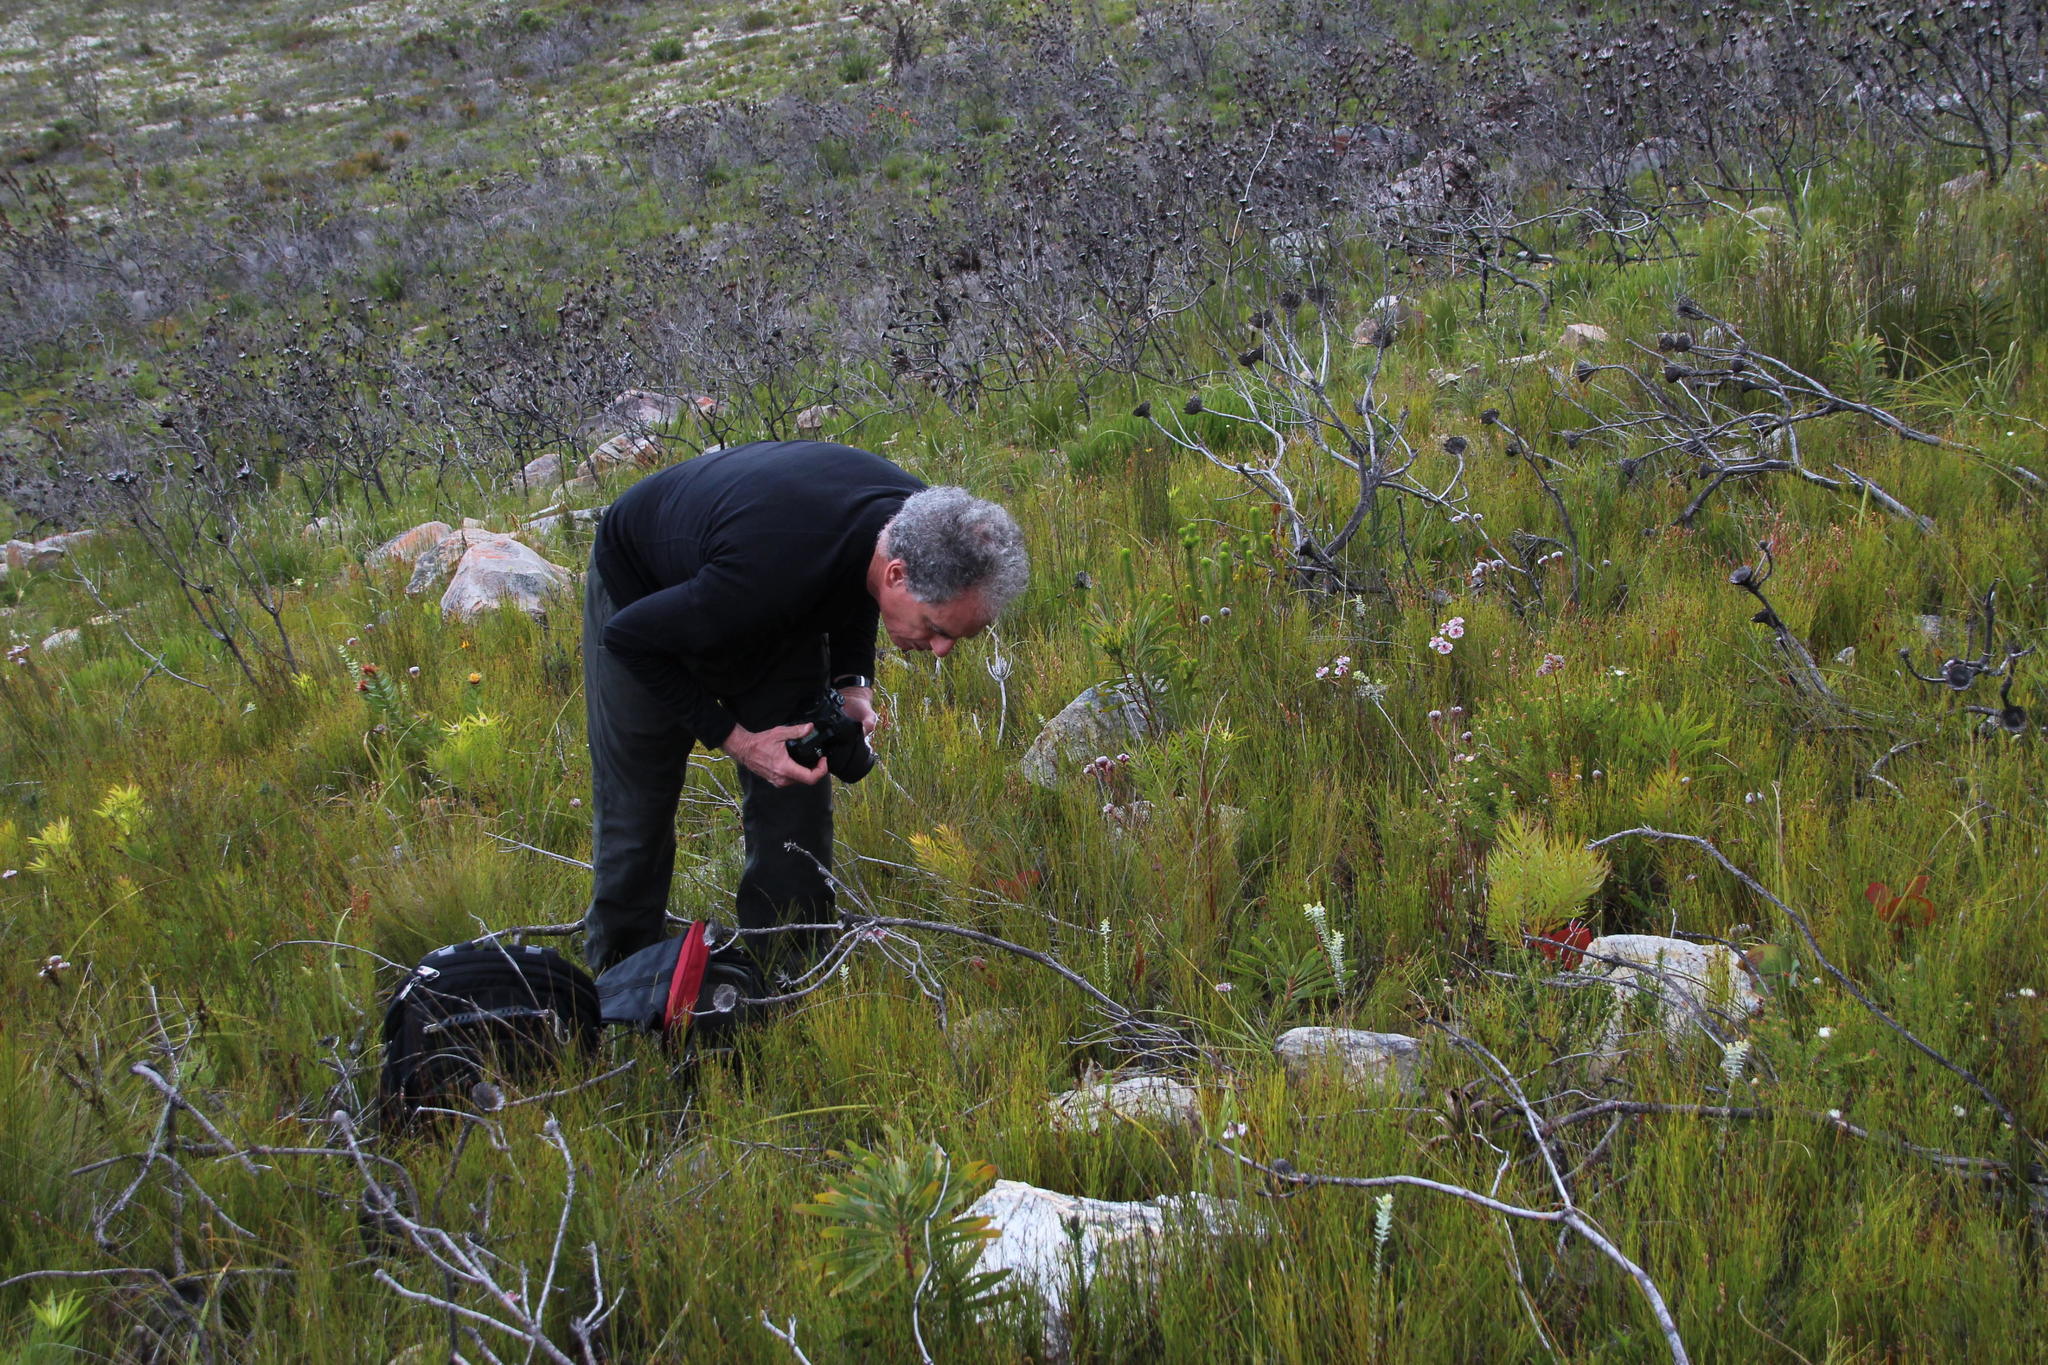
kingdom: Plantae
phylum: Tracheophyta
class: Magnoliopsida
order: Proteales
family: Proteaceae
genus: Serruria
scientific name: Serruria phylicoides
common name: Bearded spiderhead
